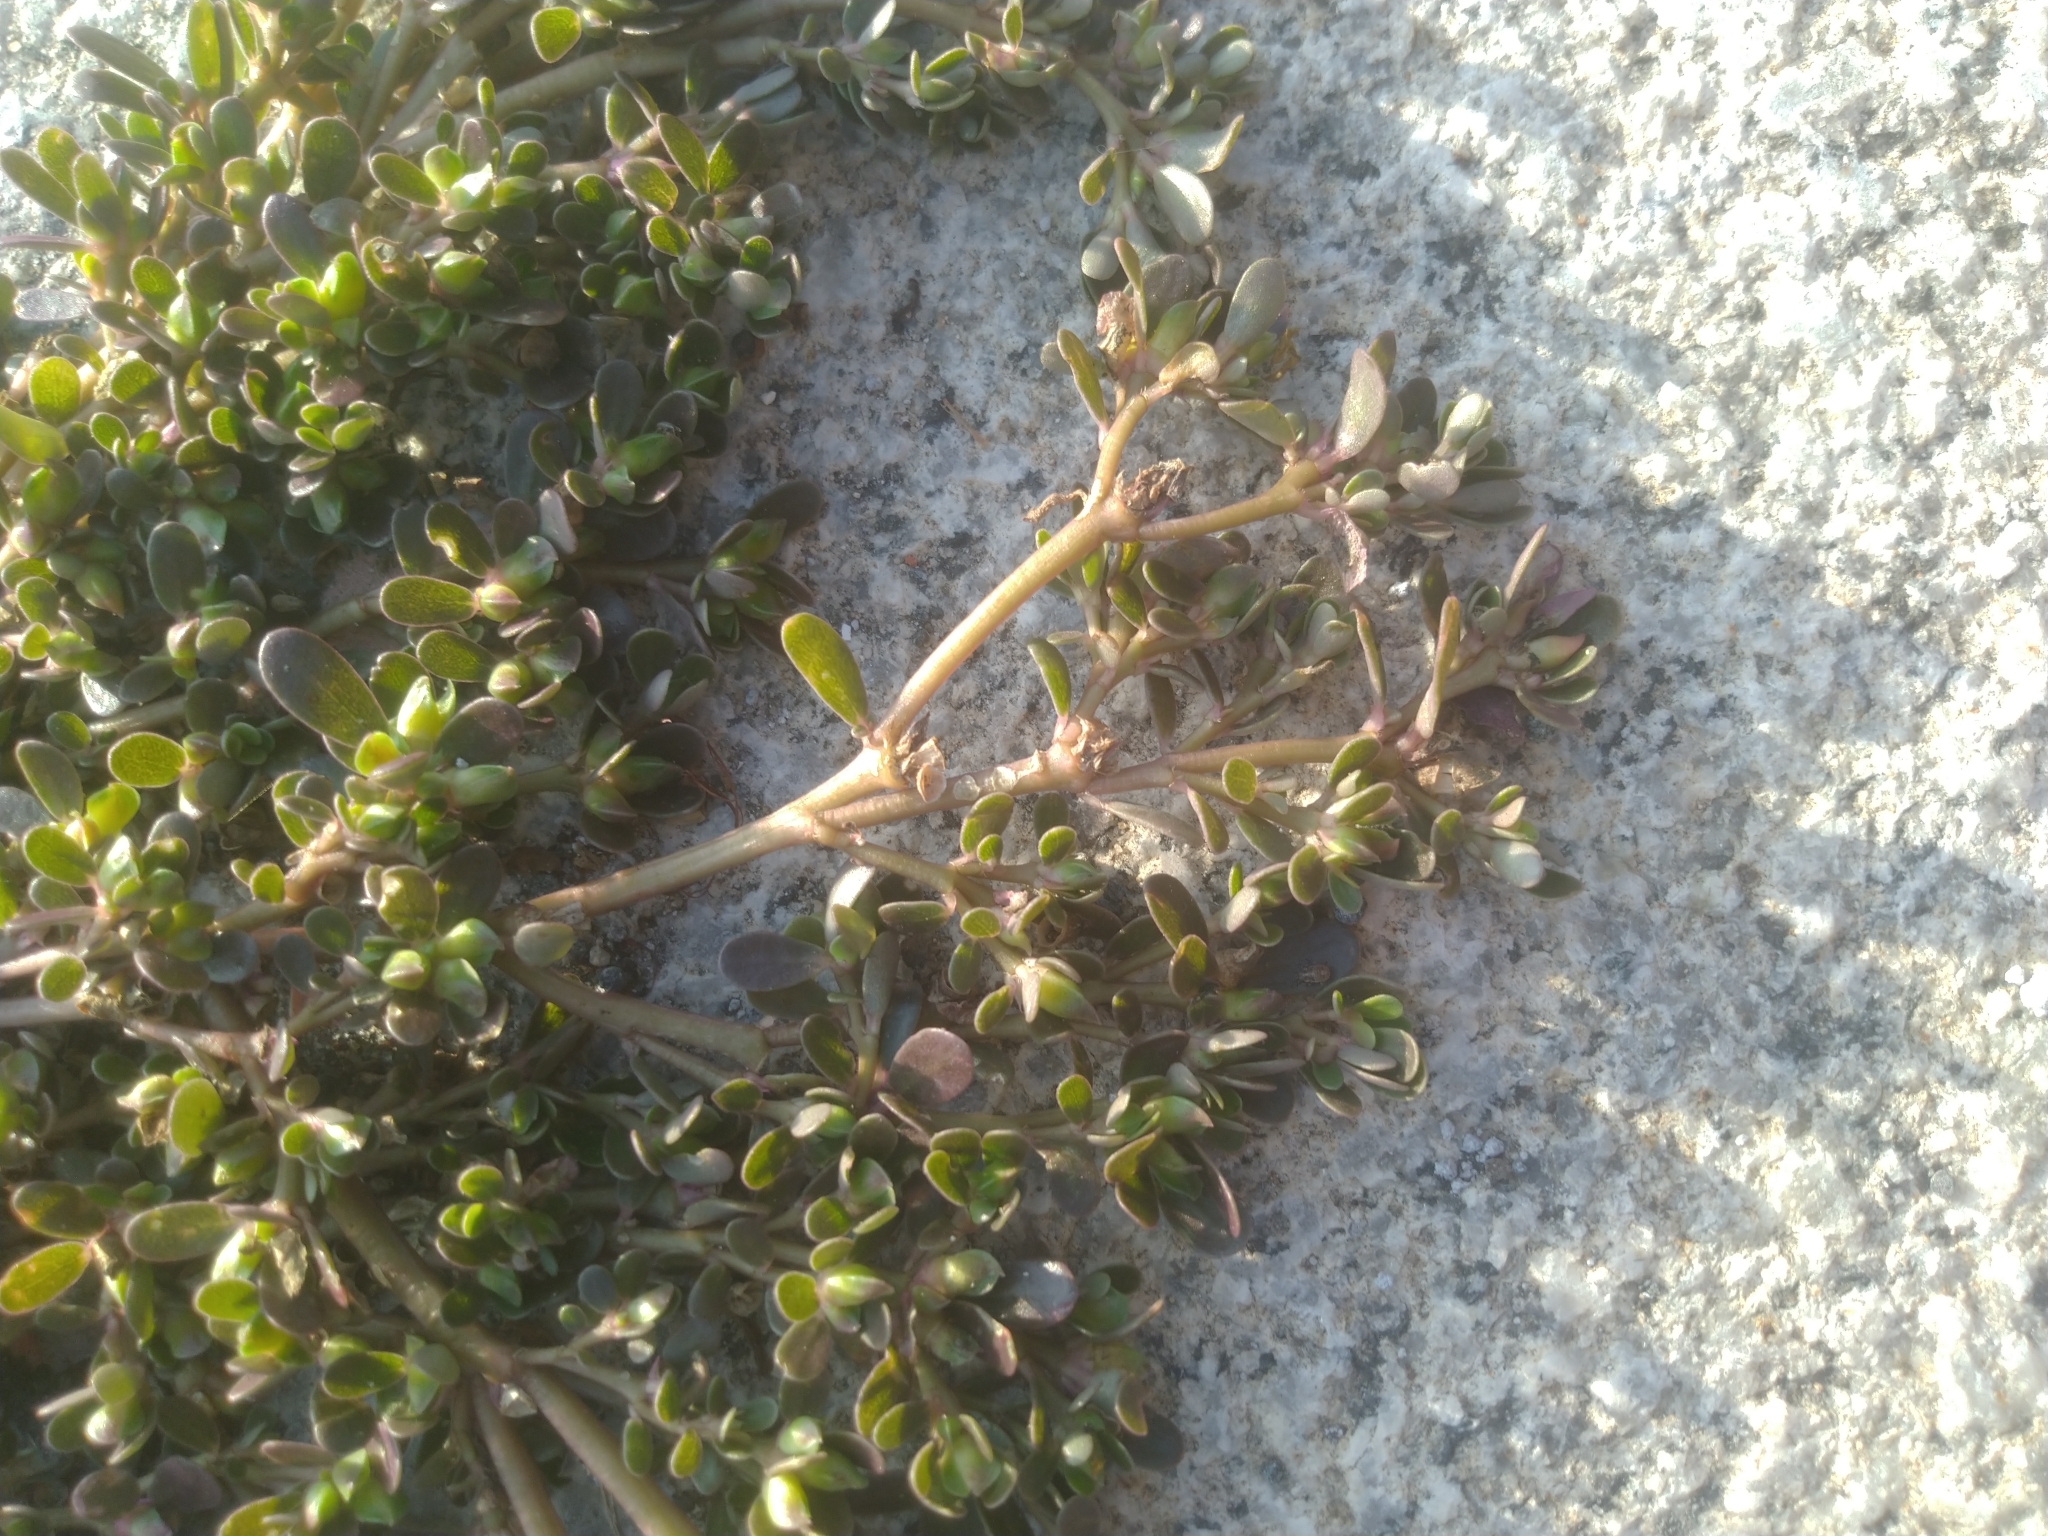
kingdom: Plantae
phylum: Tracheophyta
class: Magnoliopsida
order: Caryophyllales
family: Portulacaceae
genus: Portulaca
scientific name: Portulaca oleracea
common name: Common purslane
